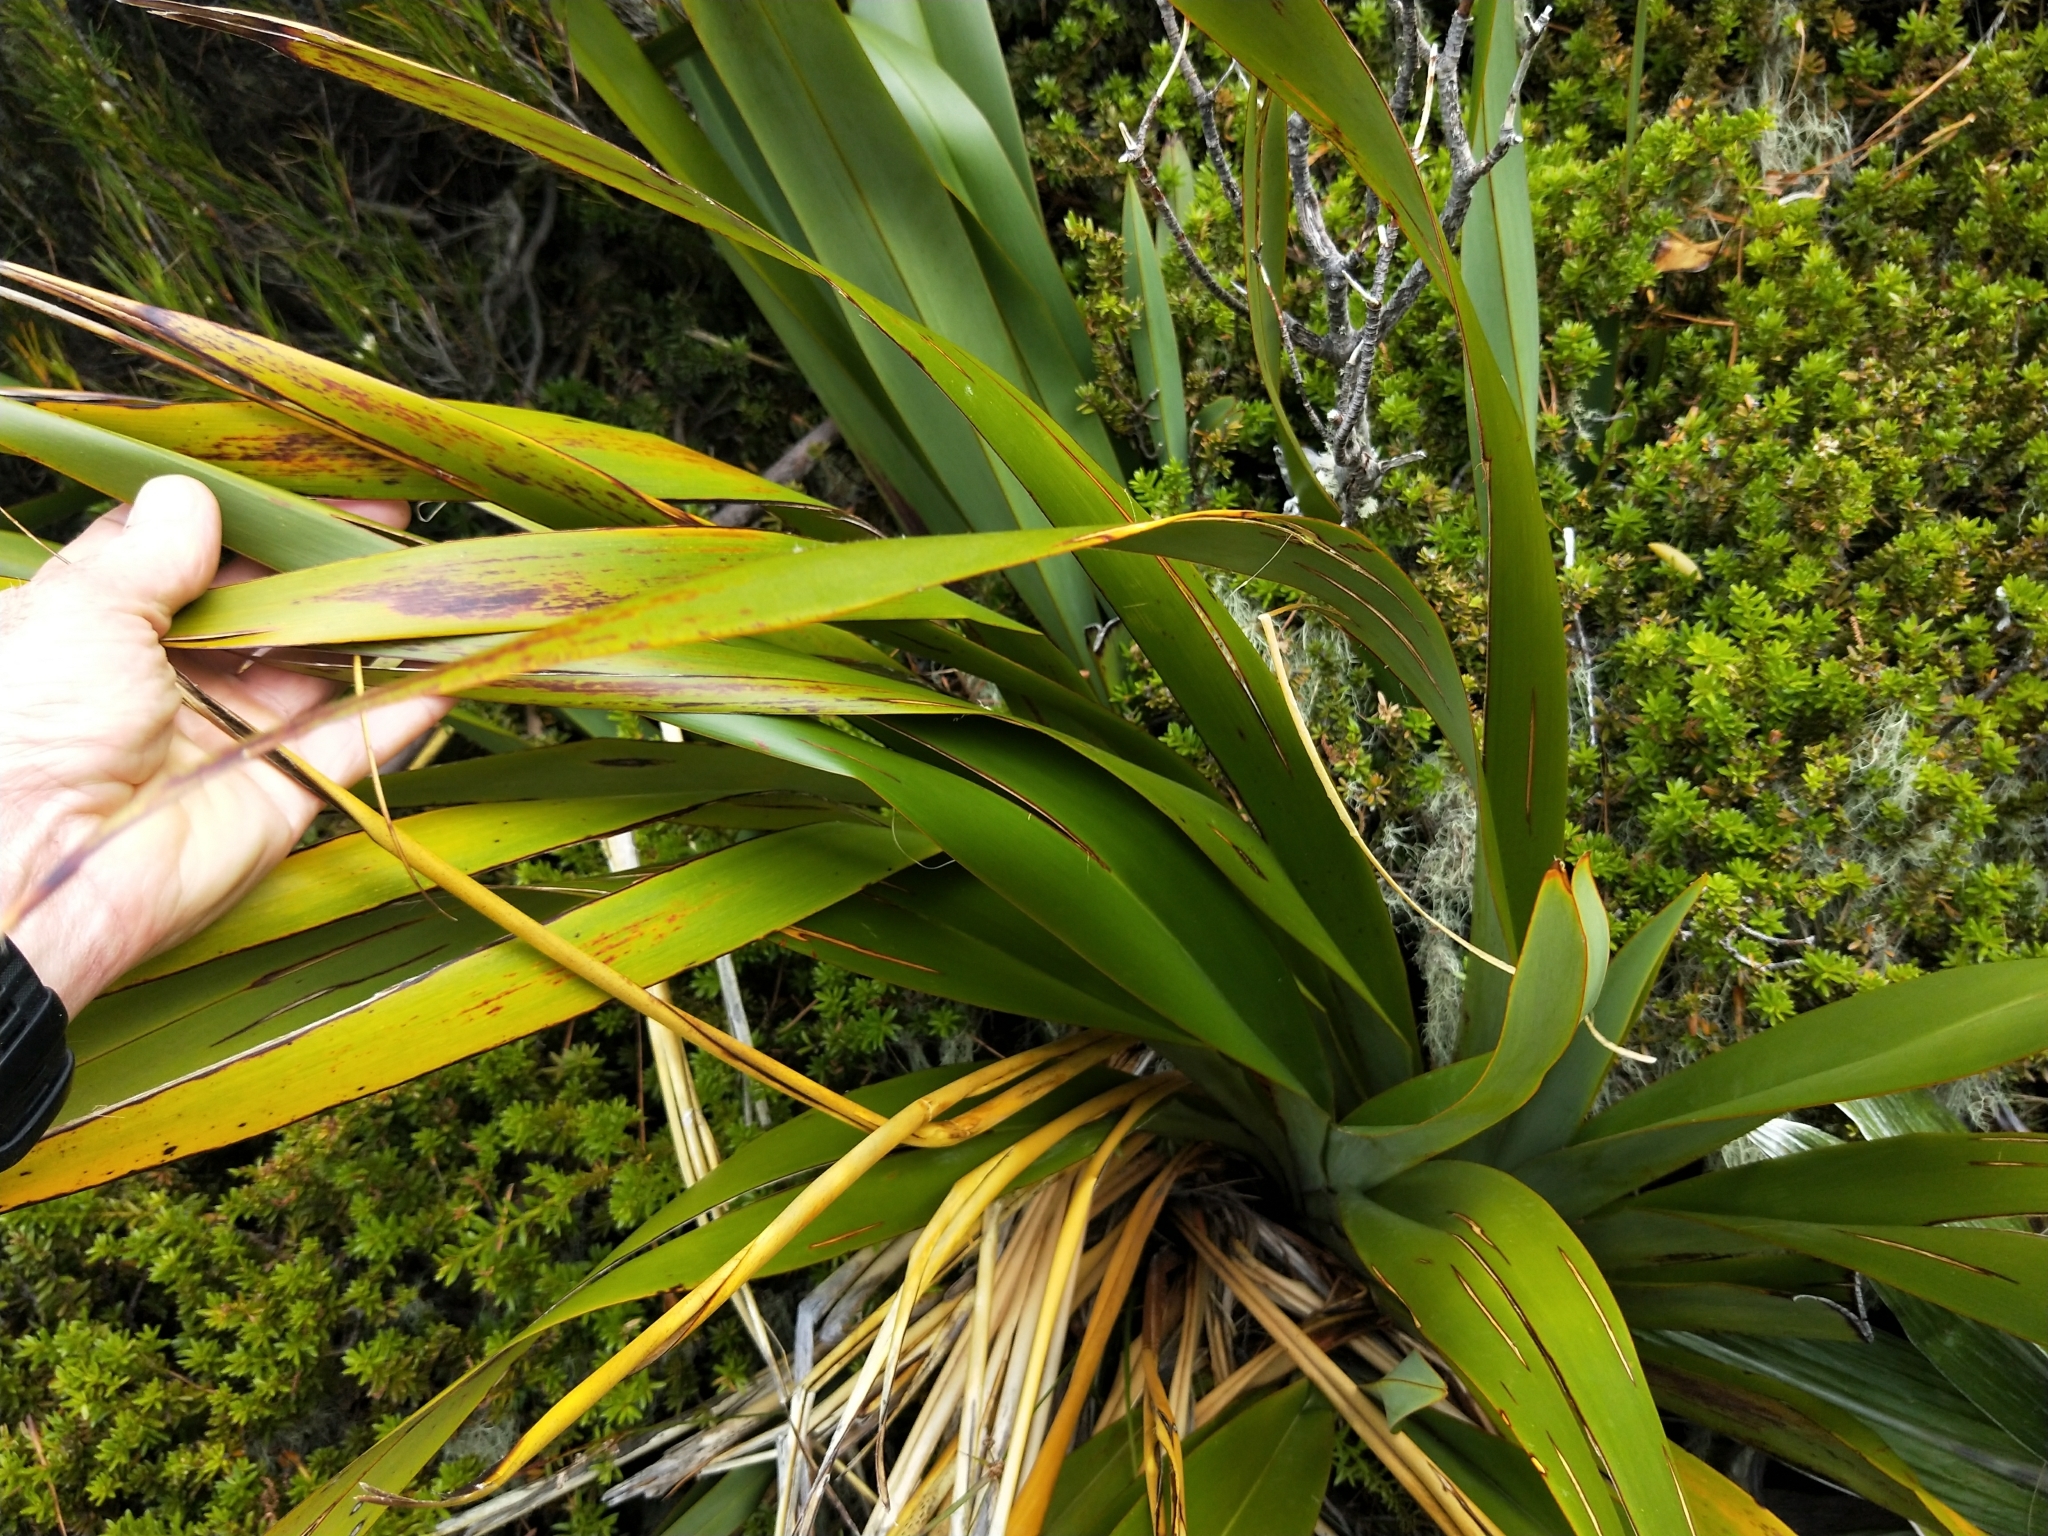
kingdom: Plantae
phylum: Tracheophyta
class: Liliopsida
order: Asparagales
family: Asphodelaceae
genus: Phormium
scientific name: Phormium colensoi
